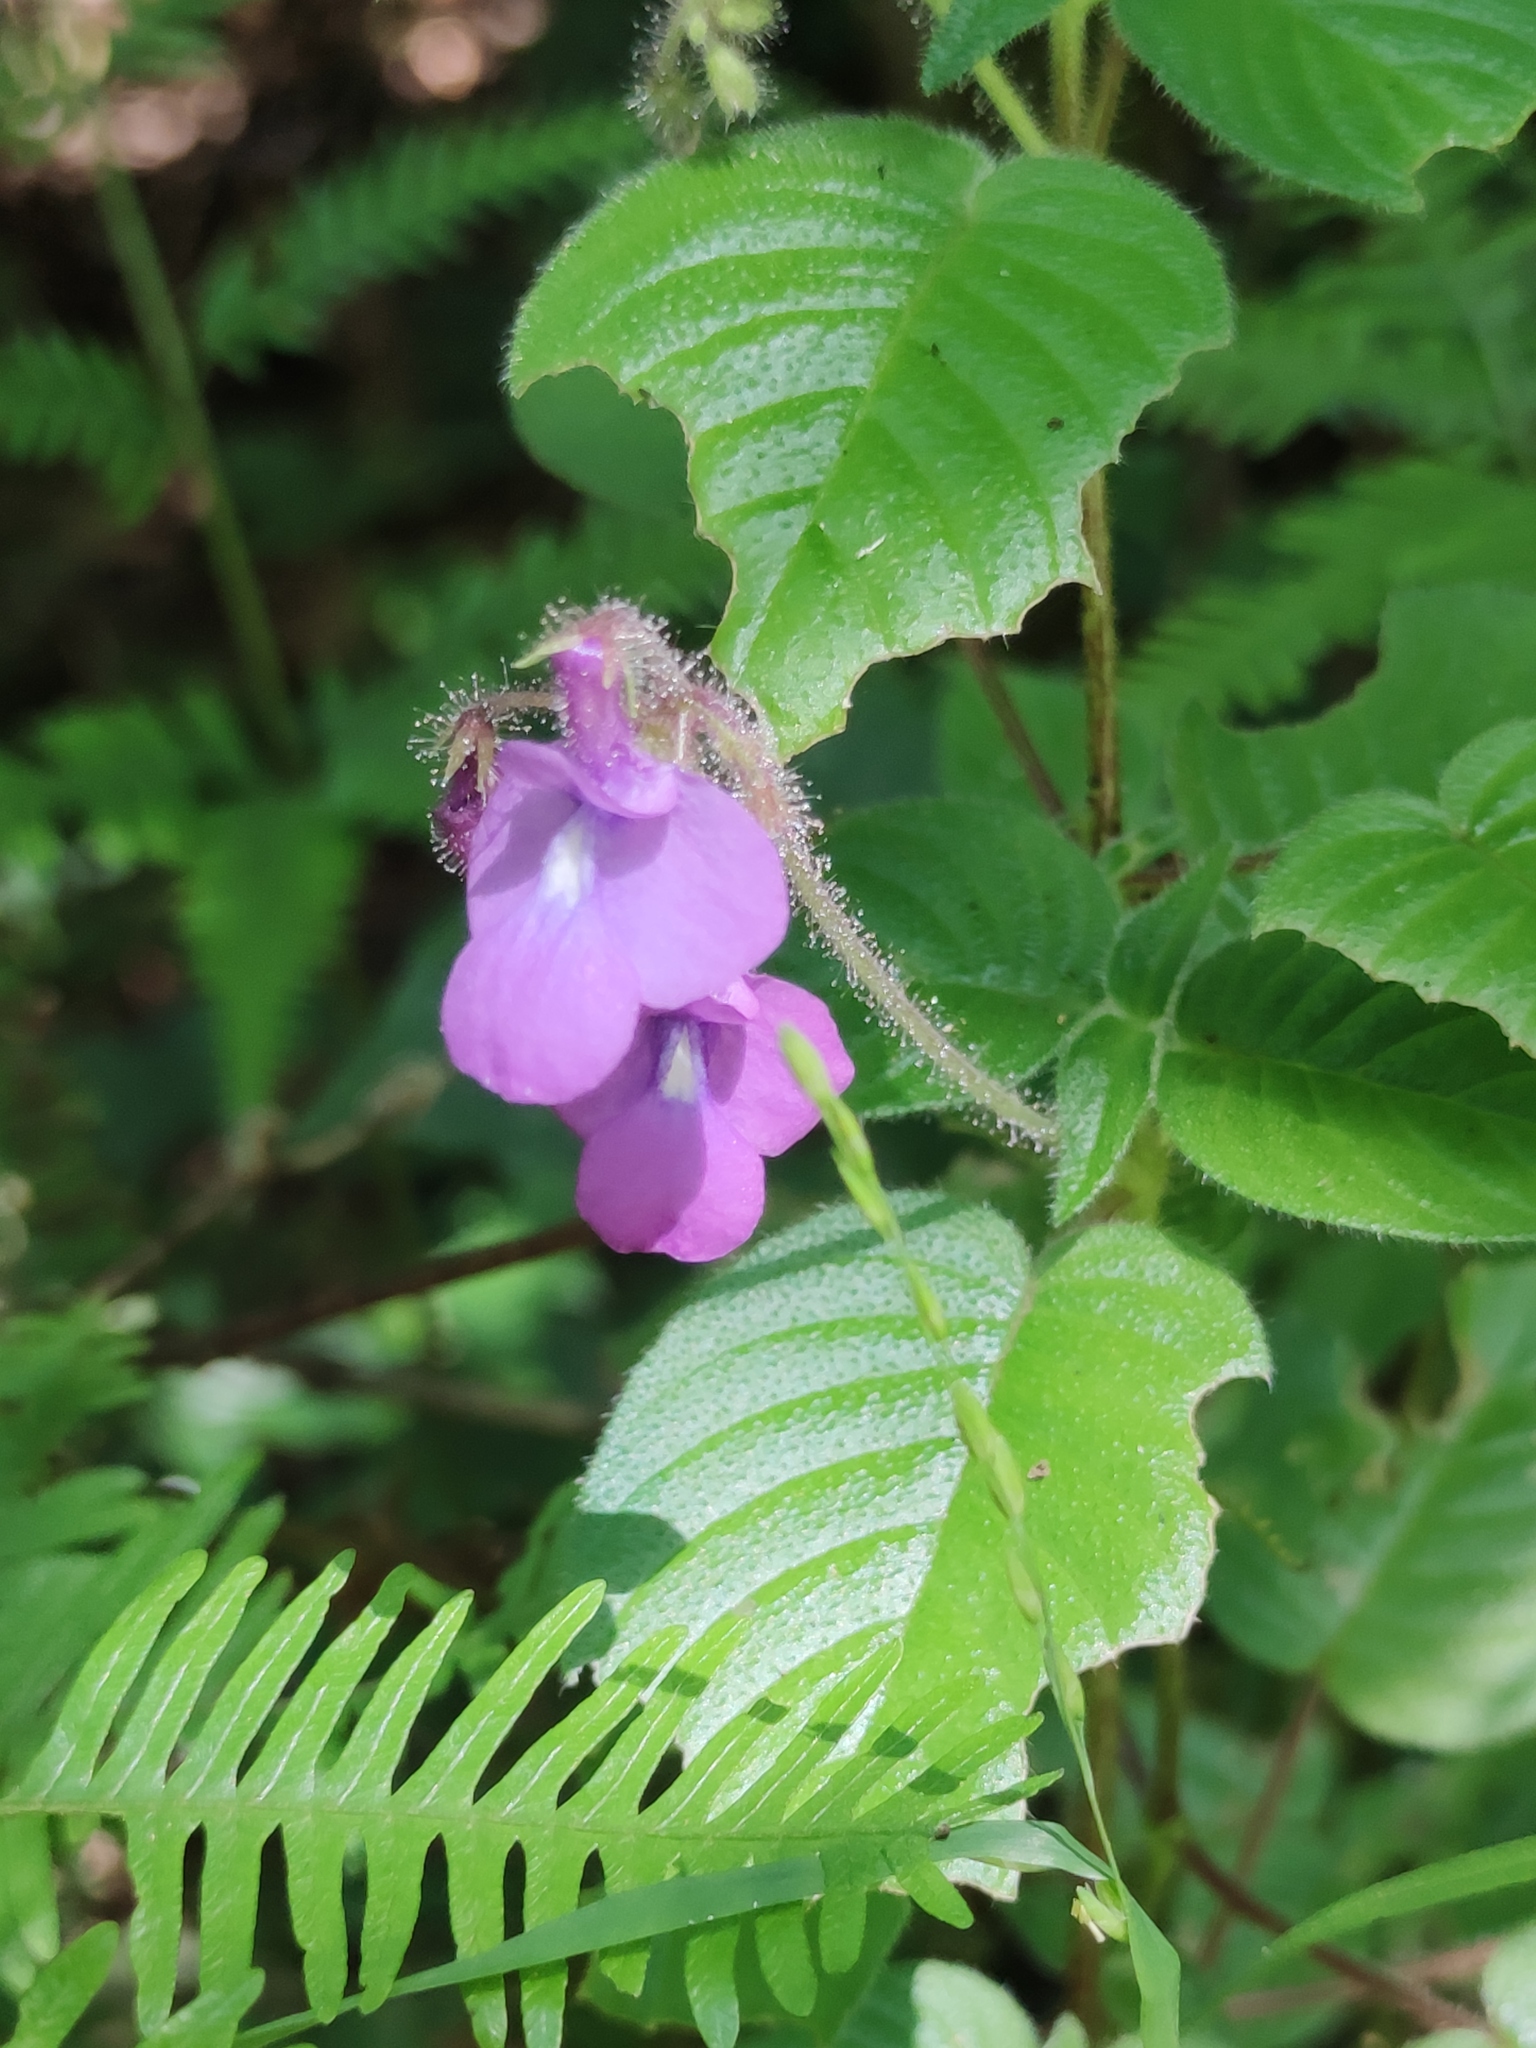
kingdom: Plantae
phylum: Tracheophyta
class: Magnoliopsida
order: Lamiales
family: Gesneriaceae
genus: Streptocarpus
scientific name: Streptocarpus glandulosissimus
